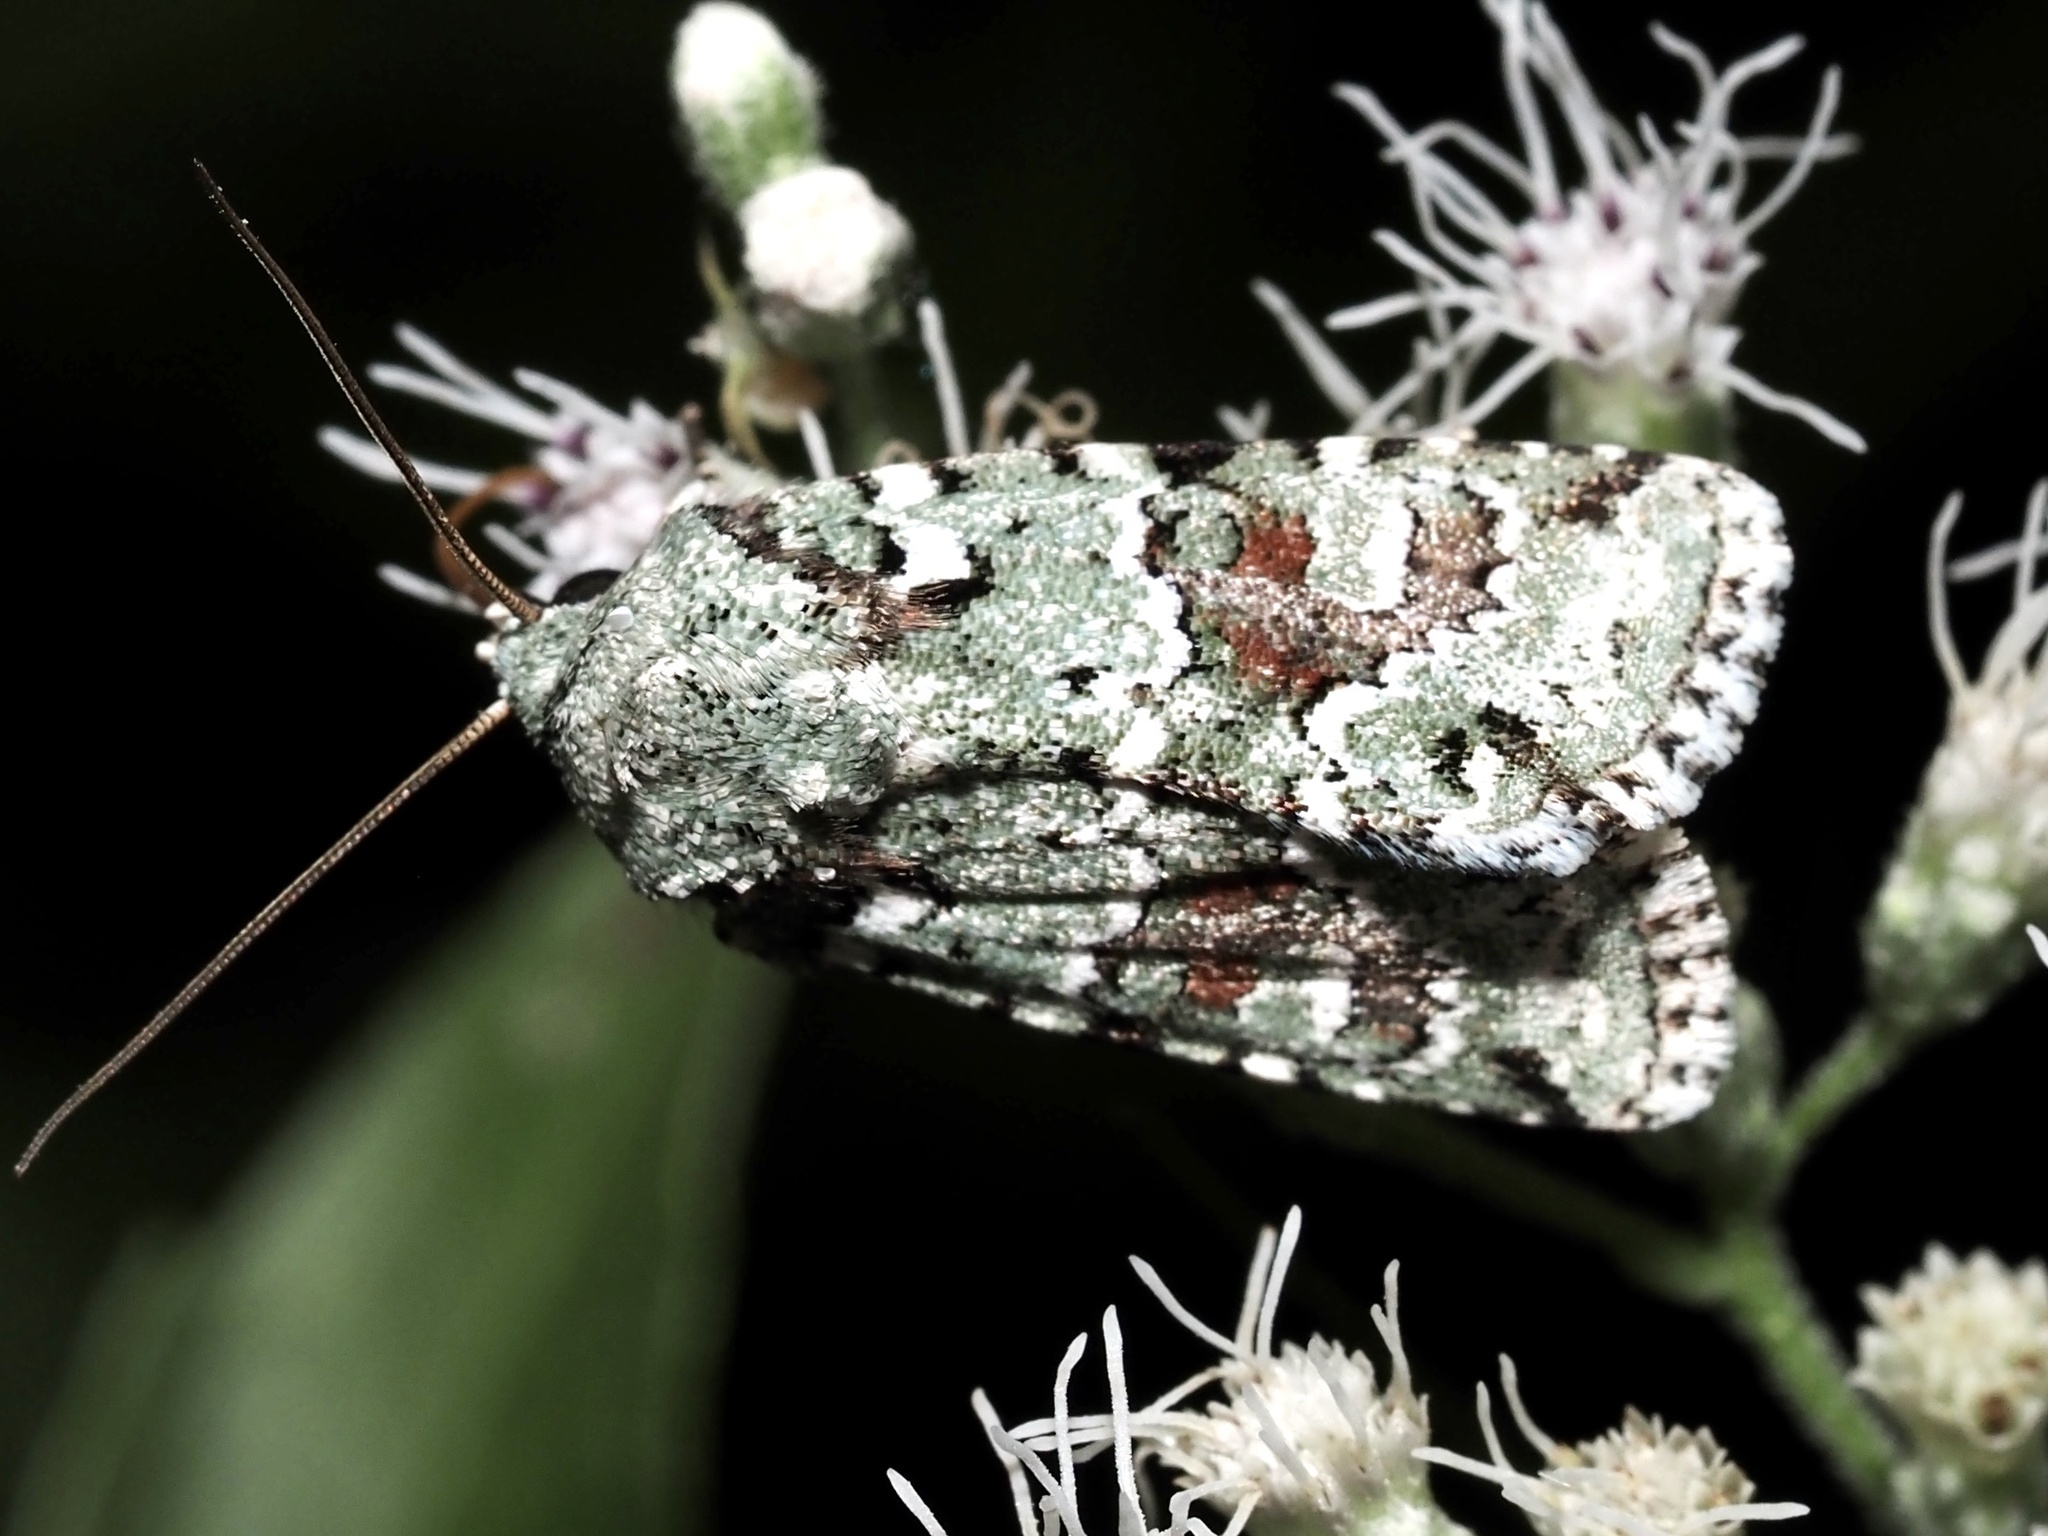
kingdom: Animalia
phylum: Arthropoda
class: Insecta
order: Lepidoptera
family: Noctuidae
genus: Lacinipolia
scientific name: Lacinipolia laudabilis
